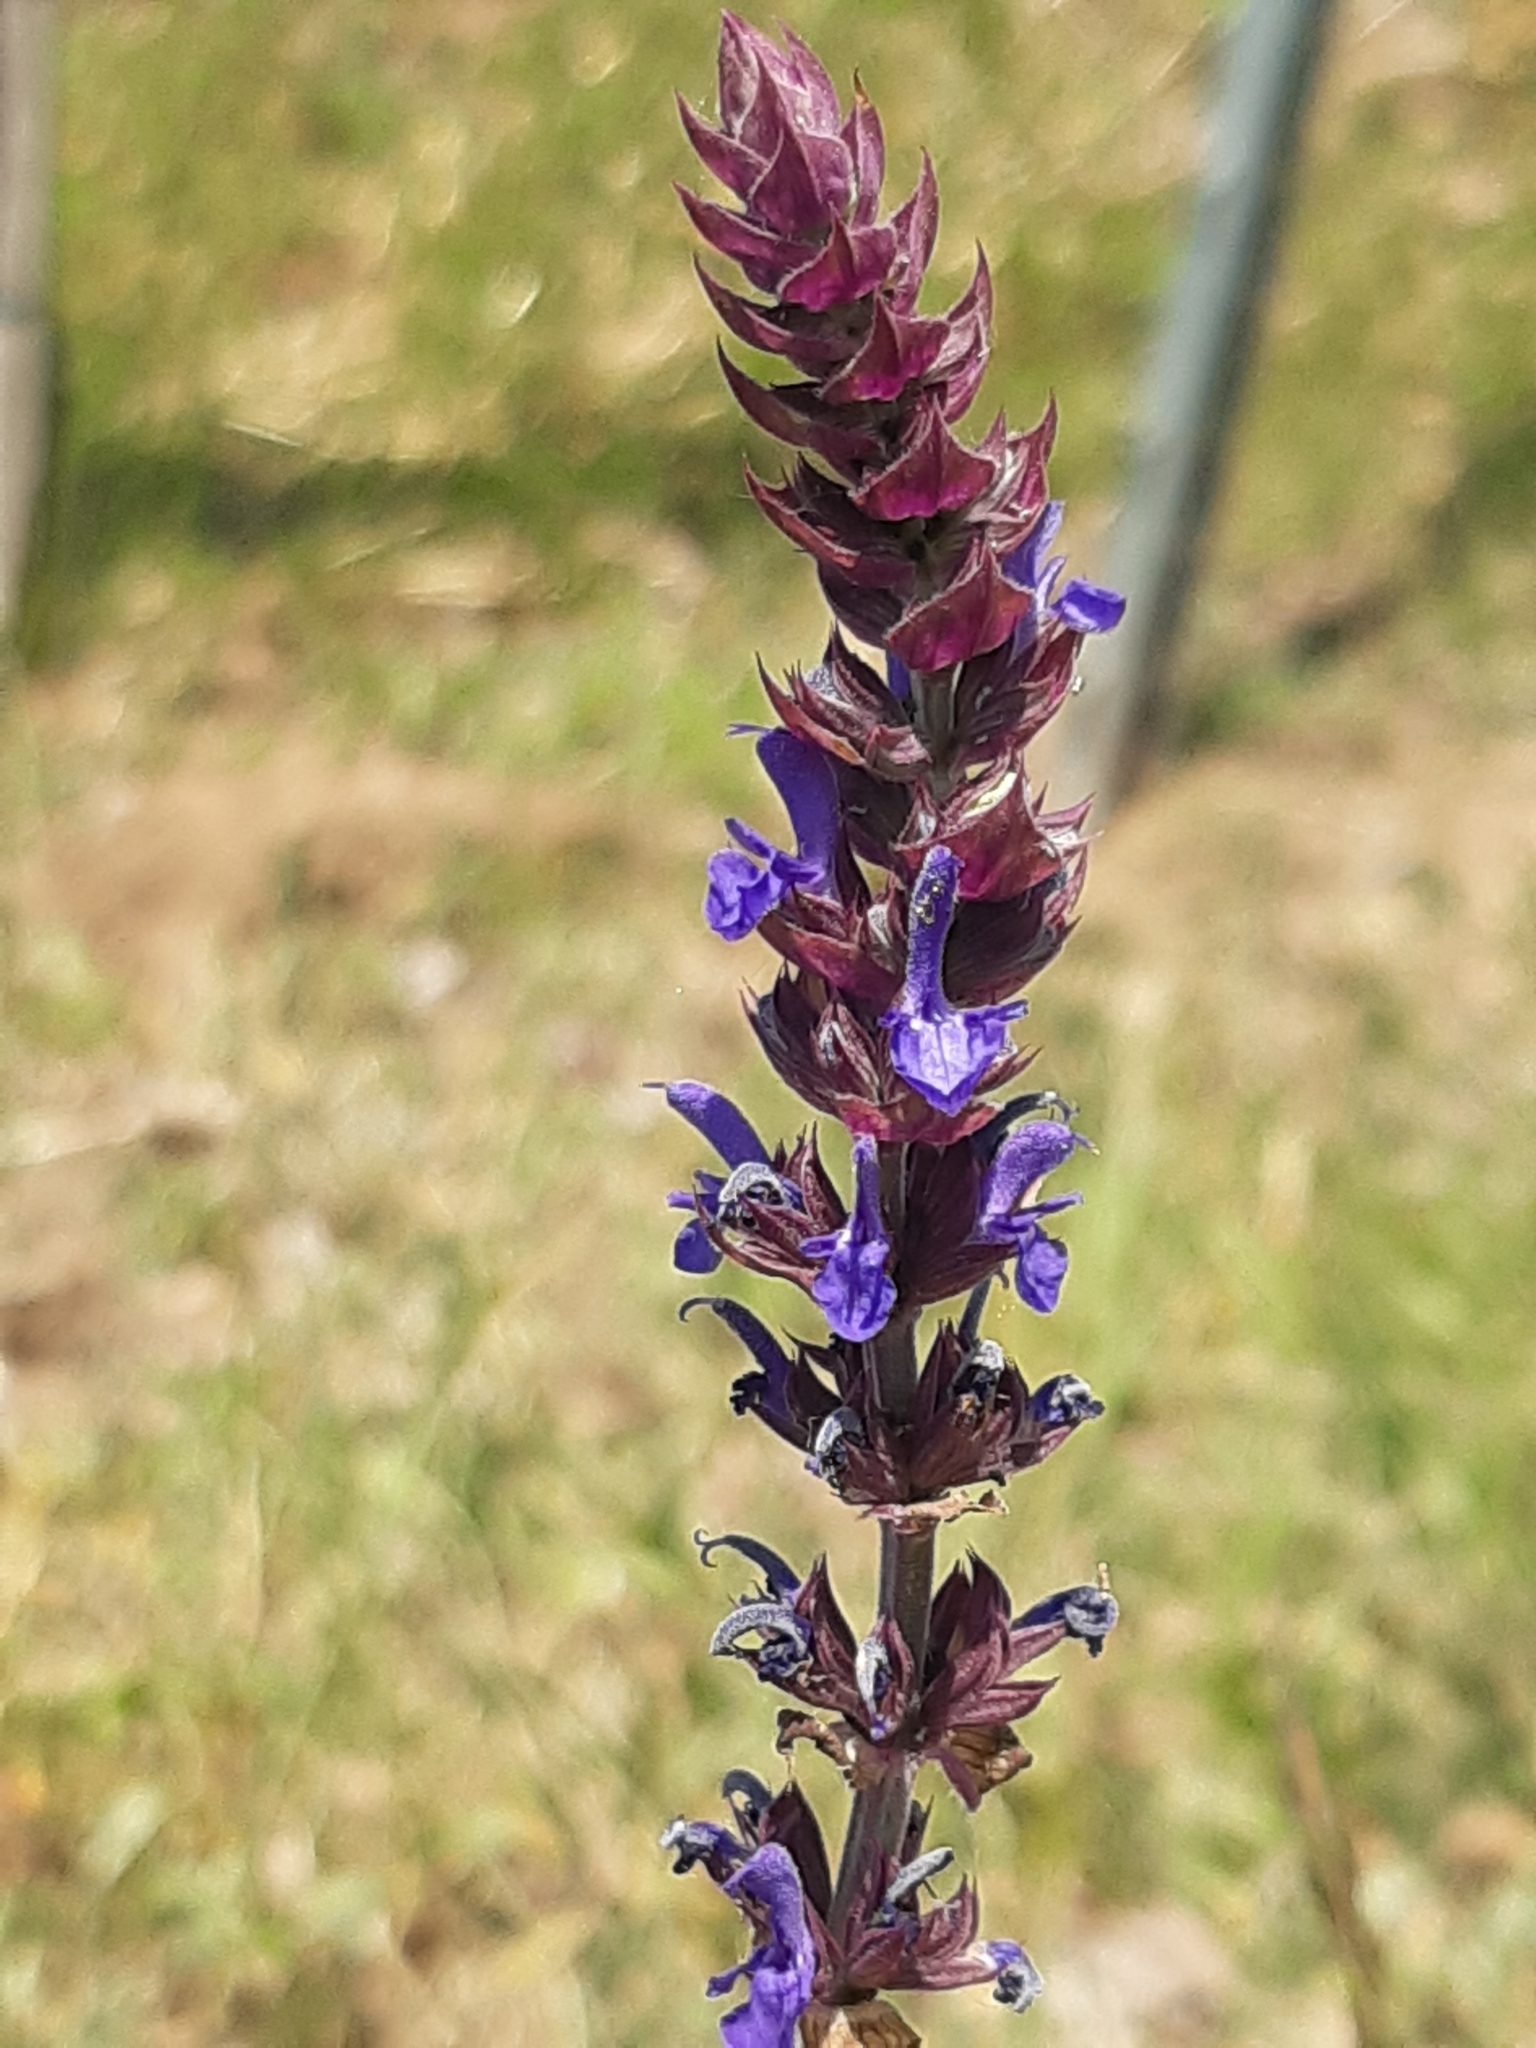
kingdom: Plantae
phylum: Tracheophyta
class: Magnoliopsida
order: Lamiales
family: Lamiaceae
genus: Salvia
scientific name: Salvia nemorosa
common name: Balkan clary
